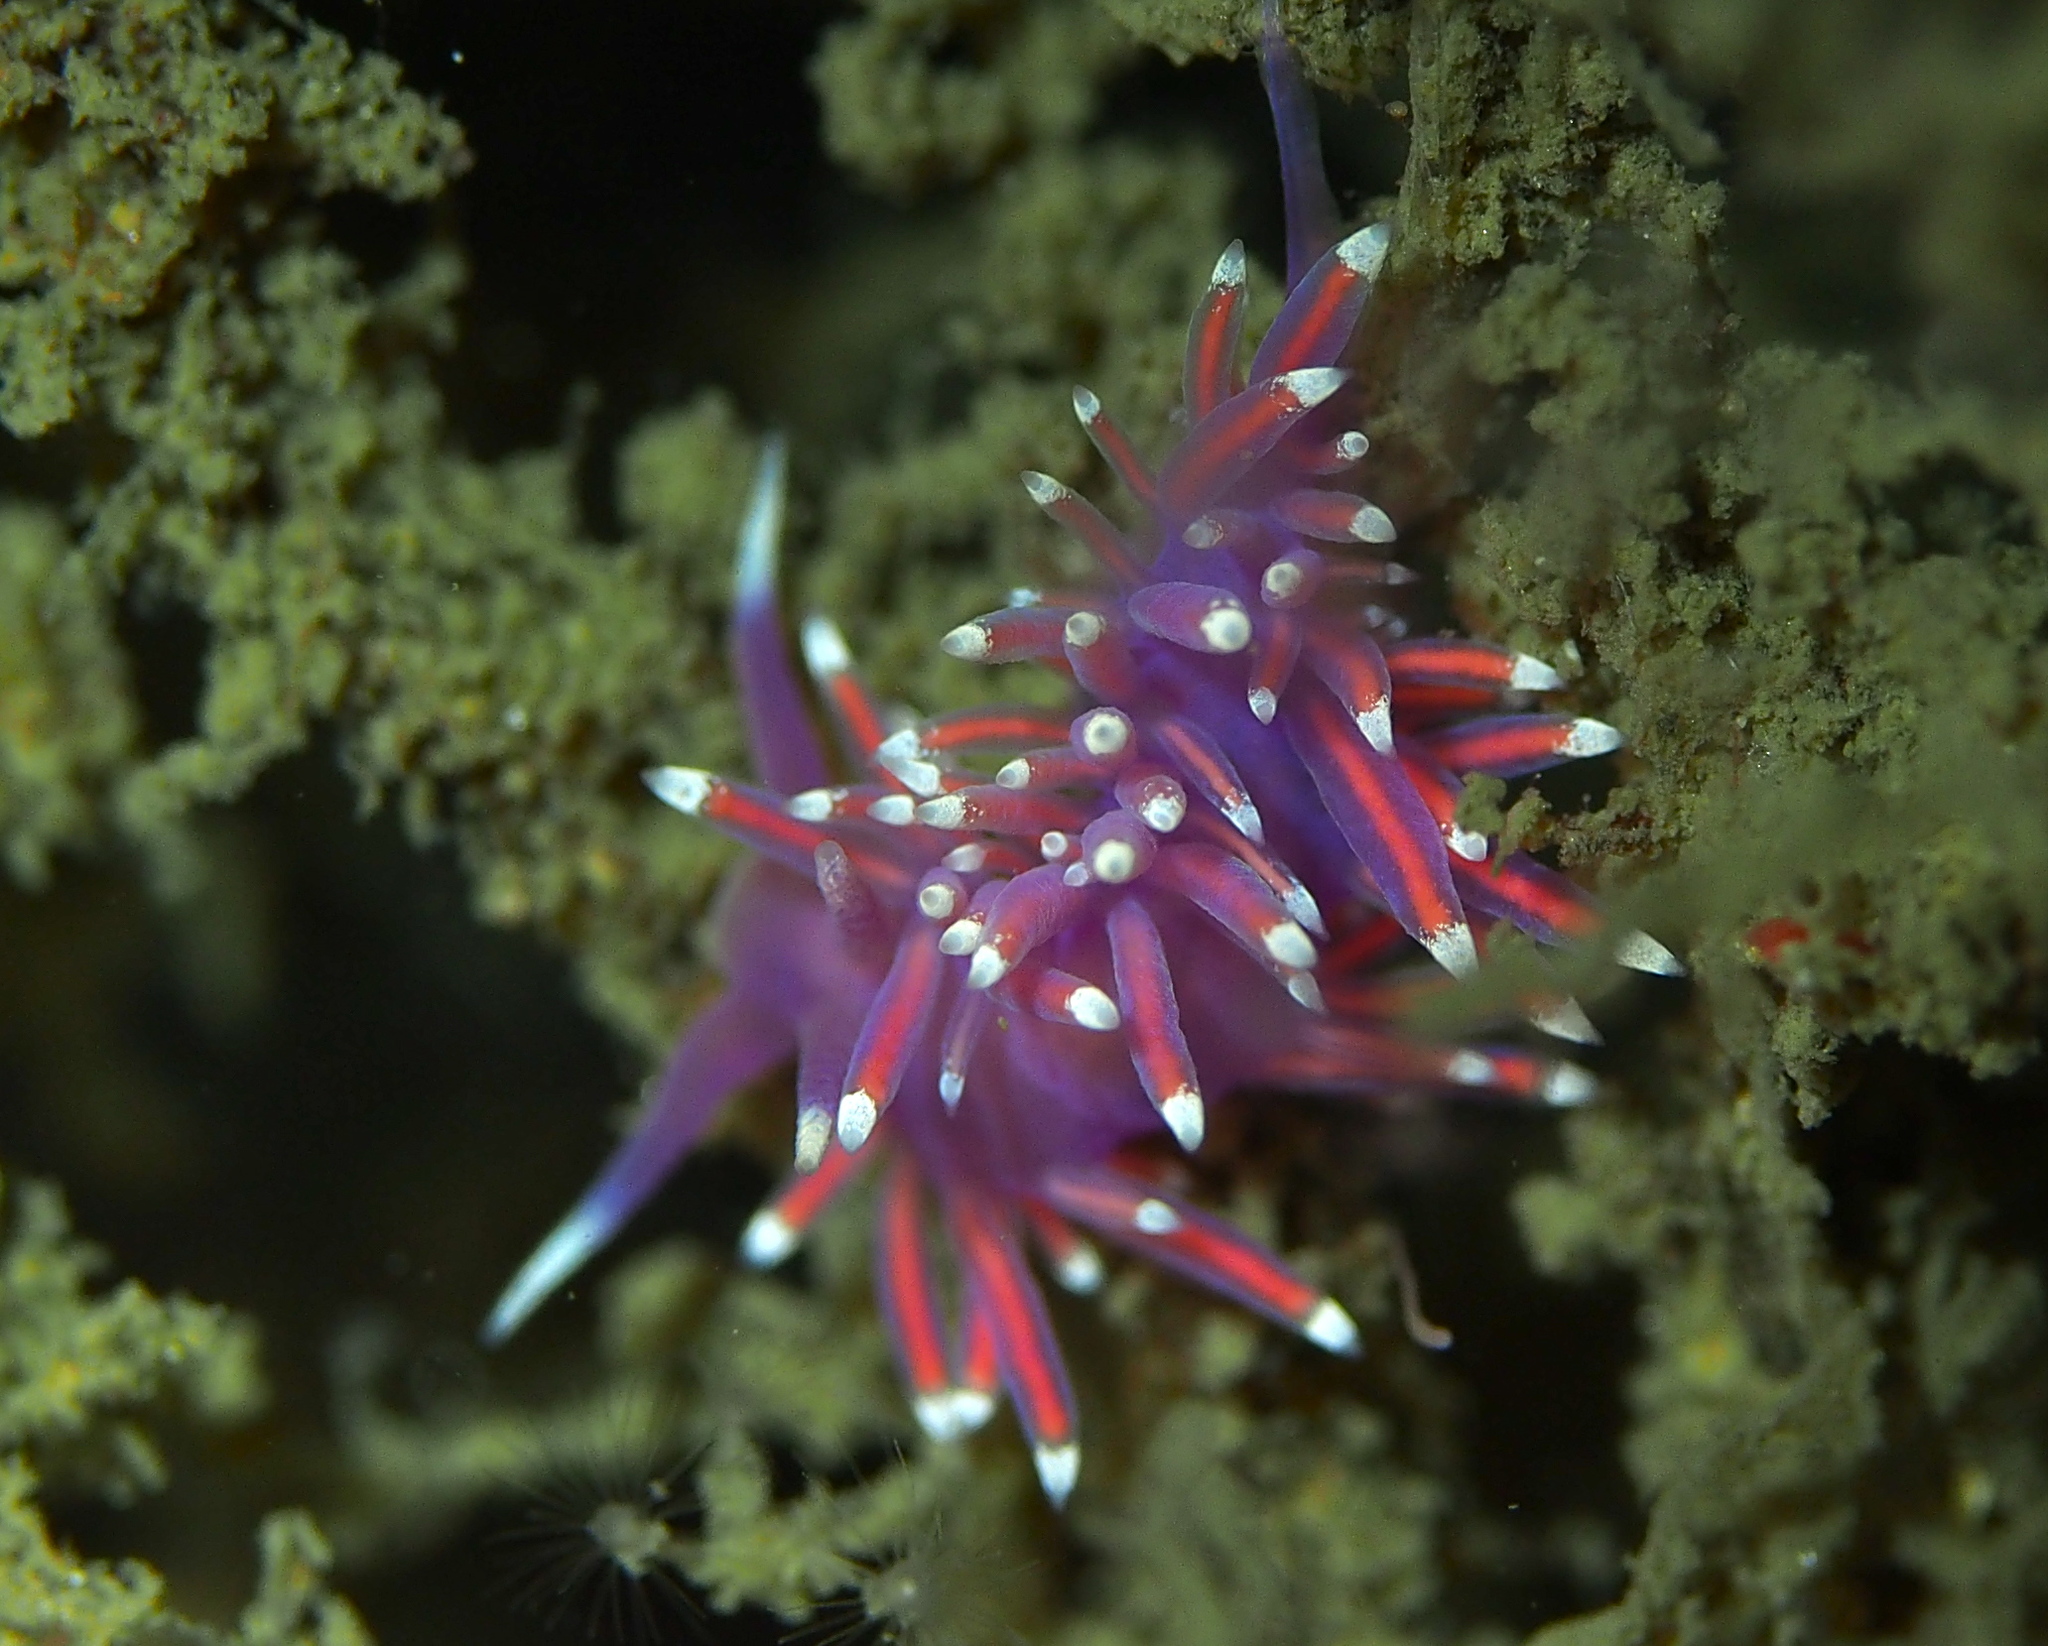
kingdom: Animalia
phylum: Mollusca
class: Gastropoda
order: Nudibranchia
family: Flabellinidae
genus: Edmundsella
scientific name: Edmundsella pedata
